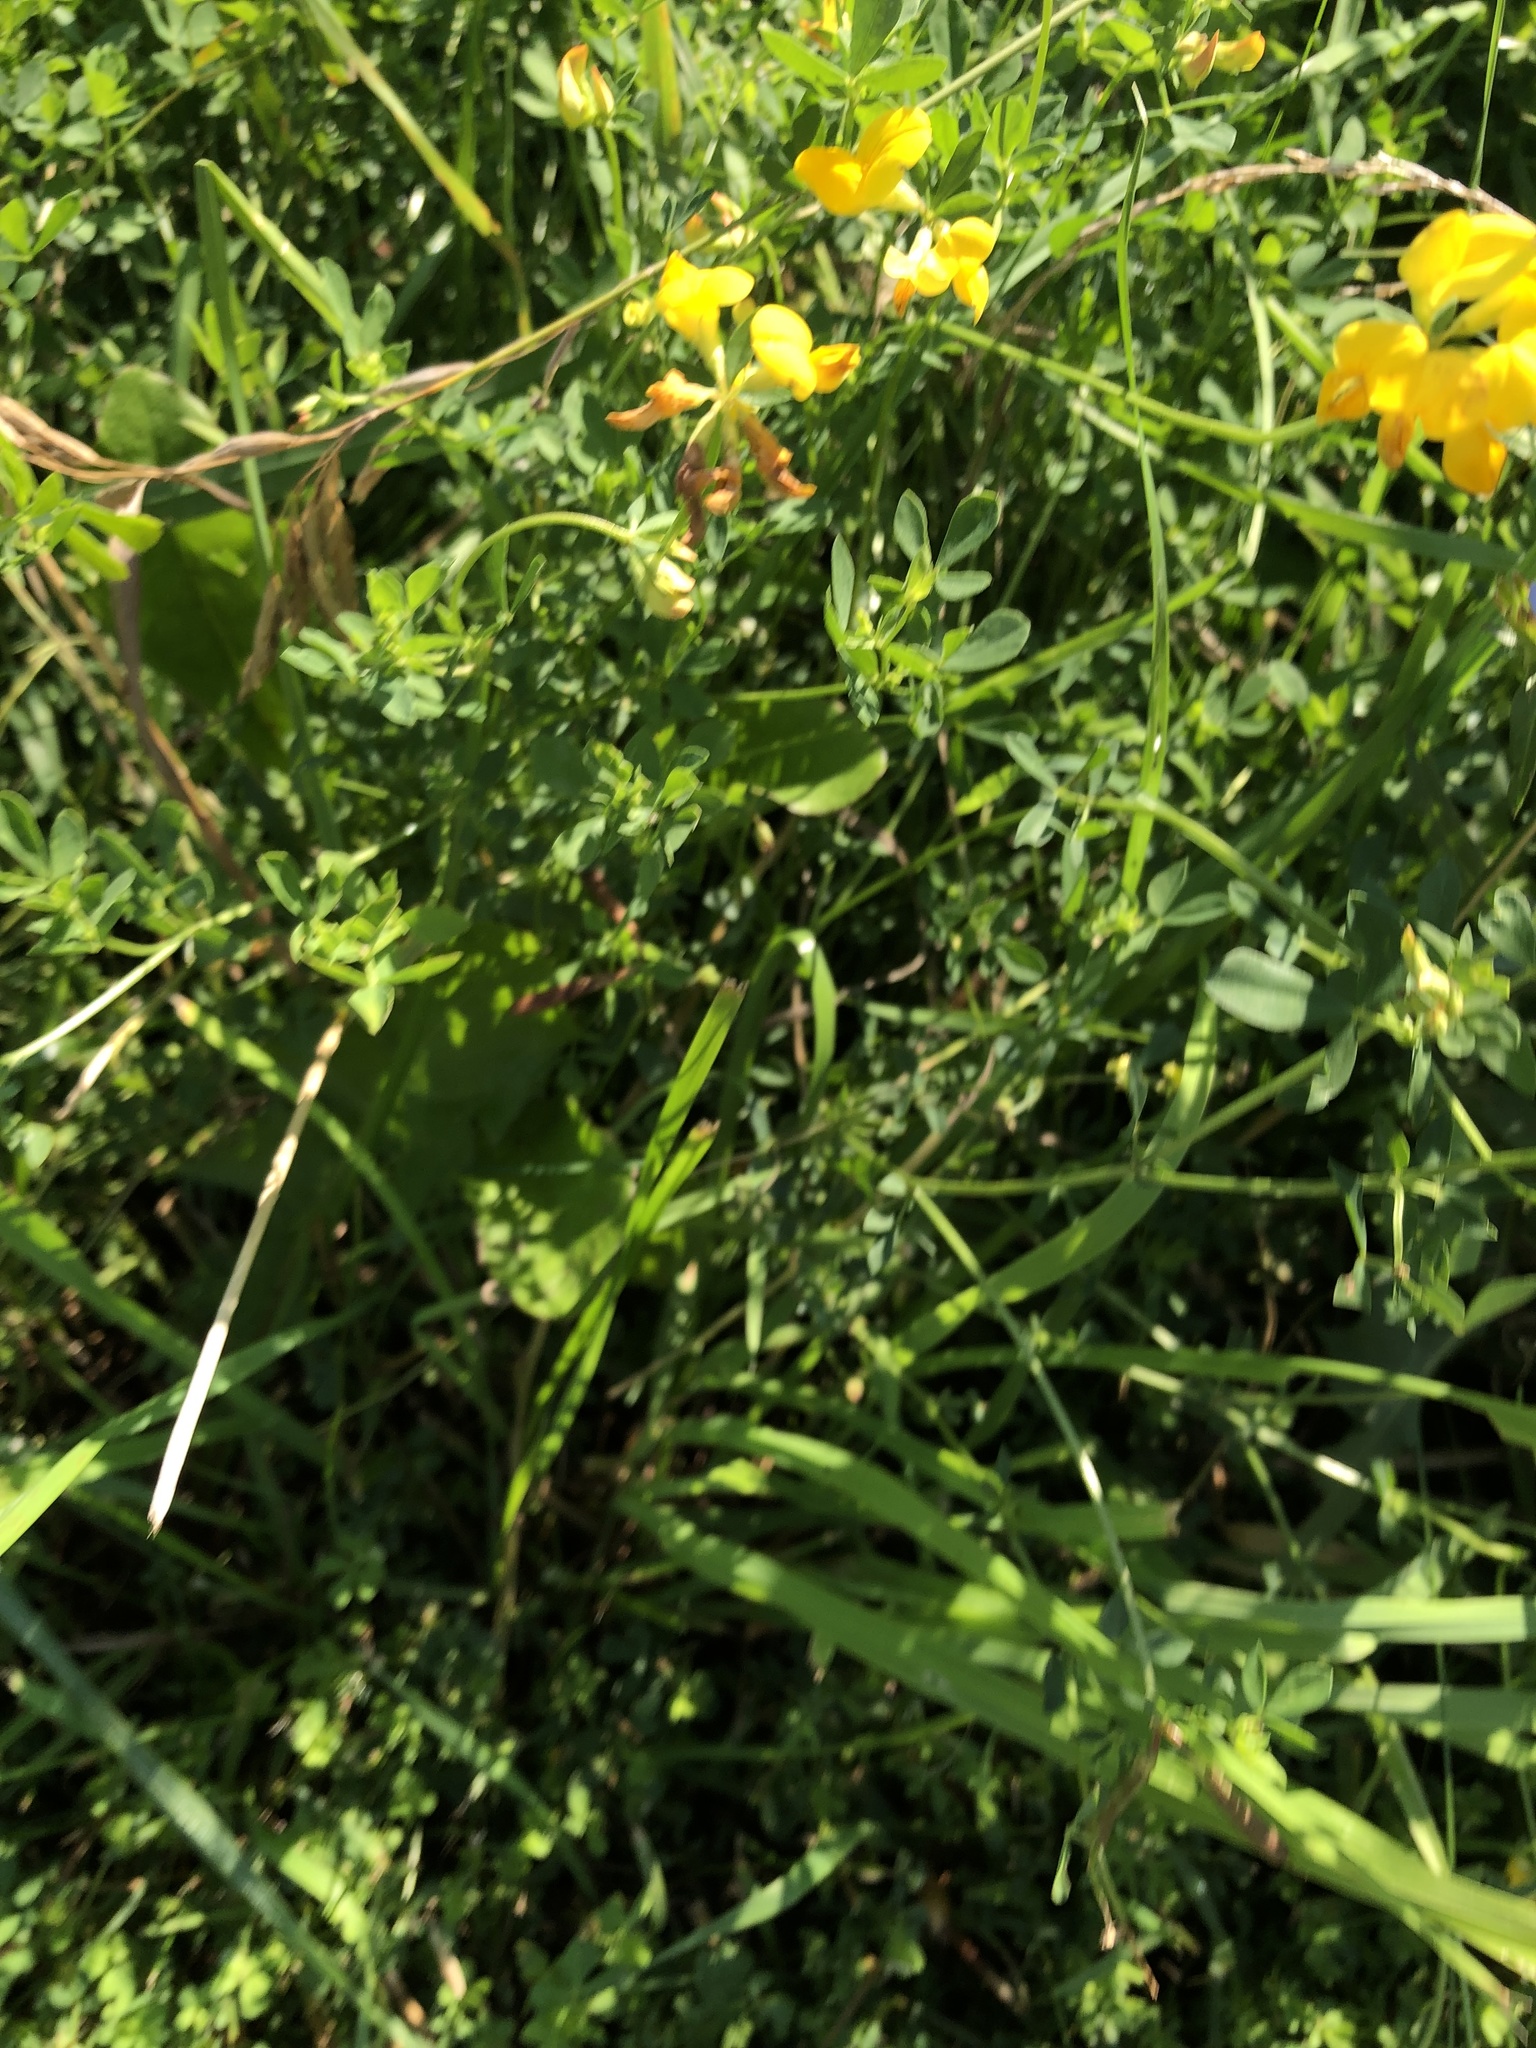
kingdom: Plantae
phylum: Tracheophyta
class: Magnoliopsida
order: Fabales
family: Fabaceae
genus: Lotus
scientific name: Lotus corniculatus
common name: Common bird's-foot-trefoil
